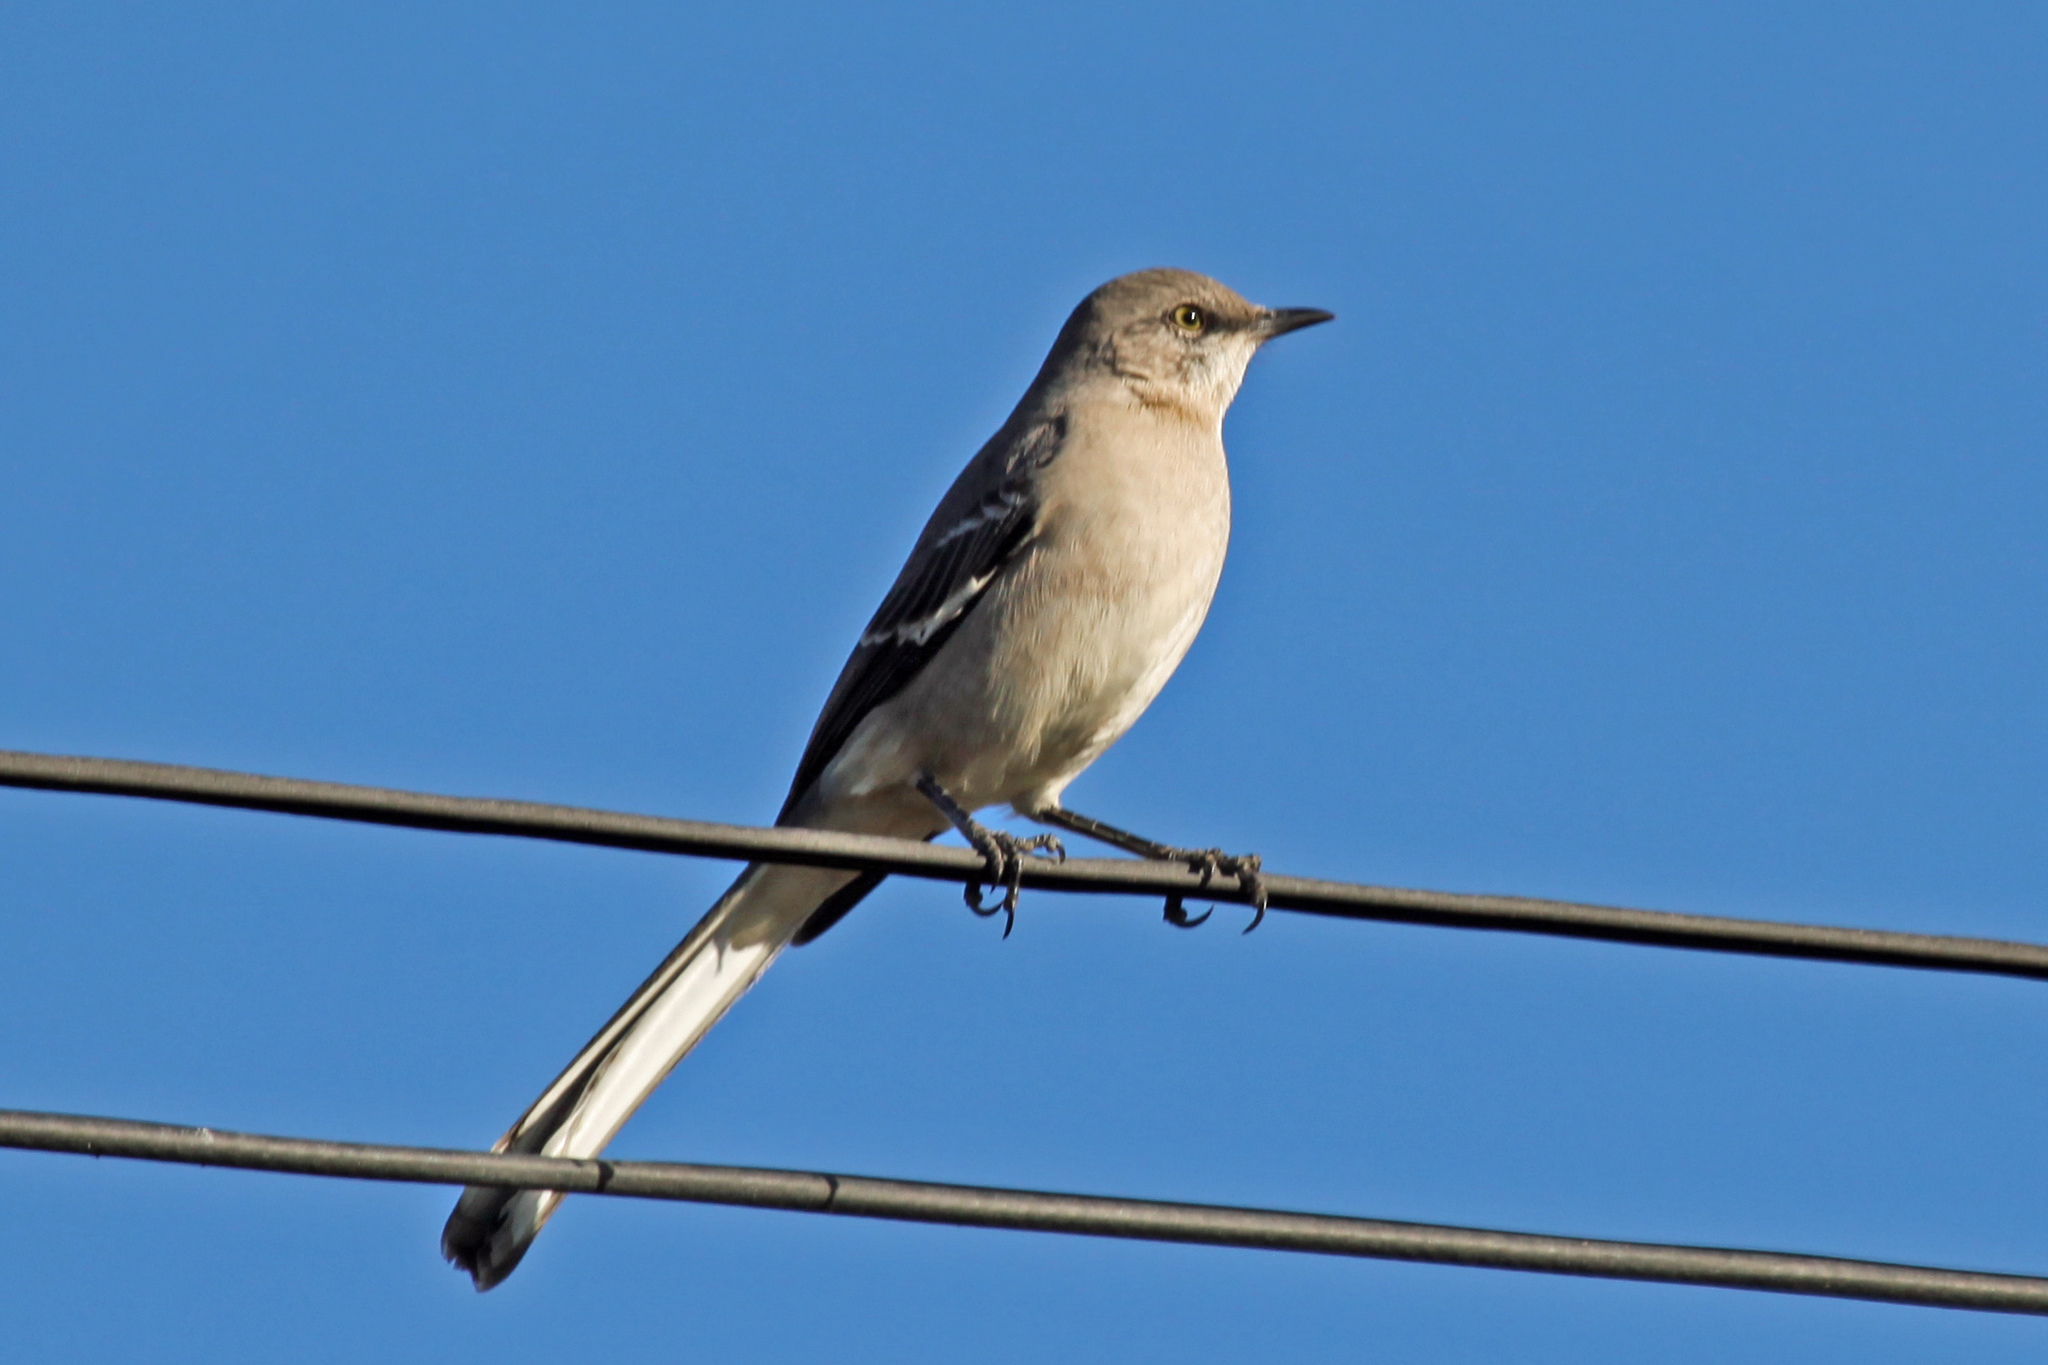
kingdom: Animalia
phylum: Chordata
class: Aves
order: Passeriformes
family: Mimidae
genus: Mimus
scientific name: Mimus polyglottos
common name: Northern mockingbird
